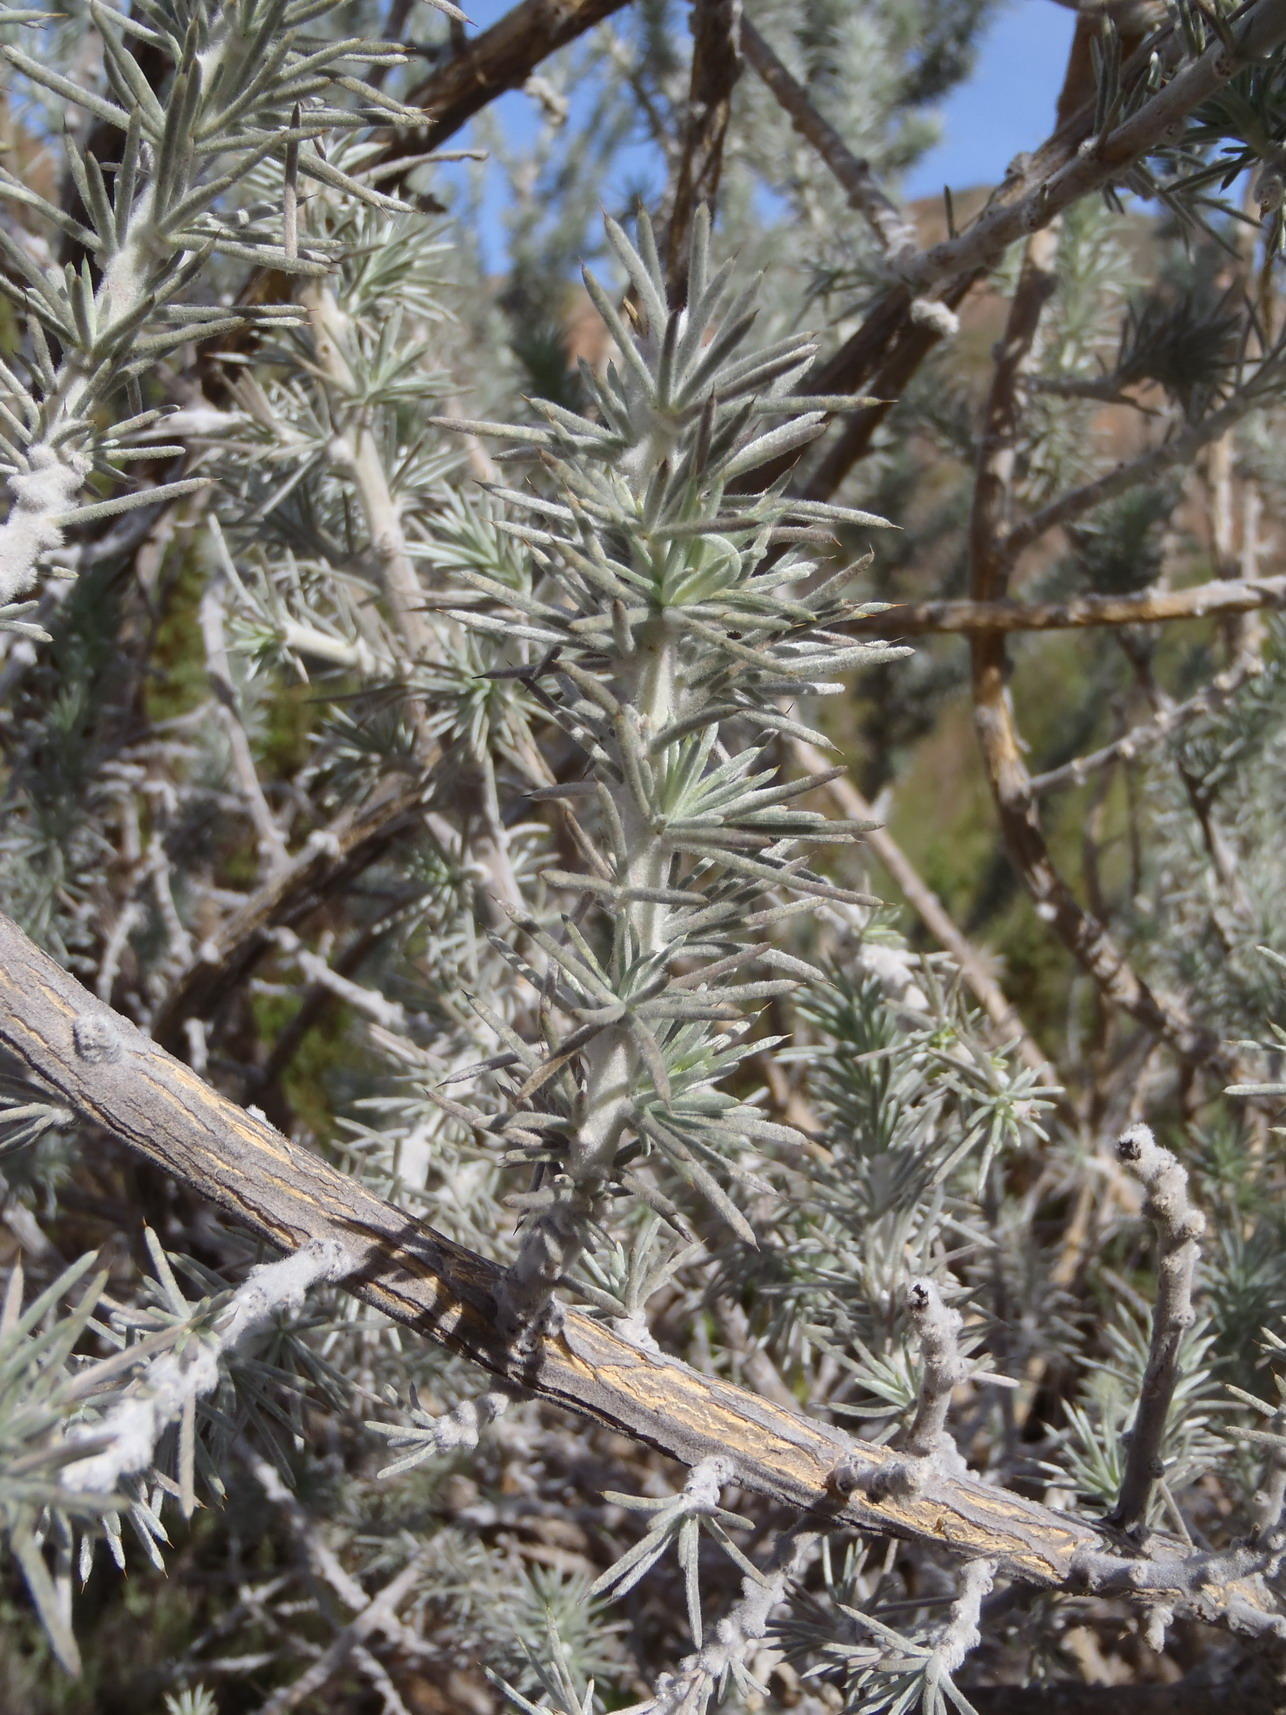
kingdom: Plantae
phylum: Tracheophyta
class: Magnoliopsida
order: Fabales
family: Fabaceae
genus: Aspalathus
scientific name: Aspalathus hystrix
